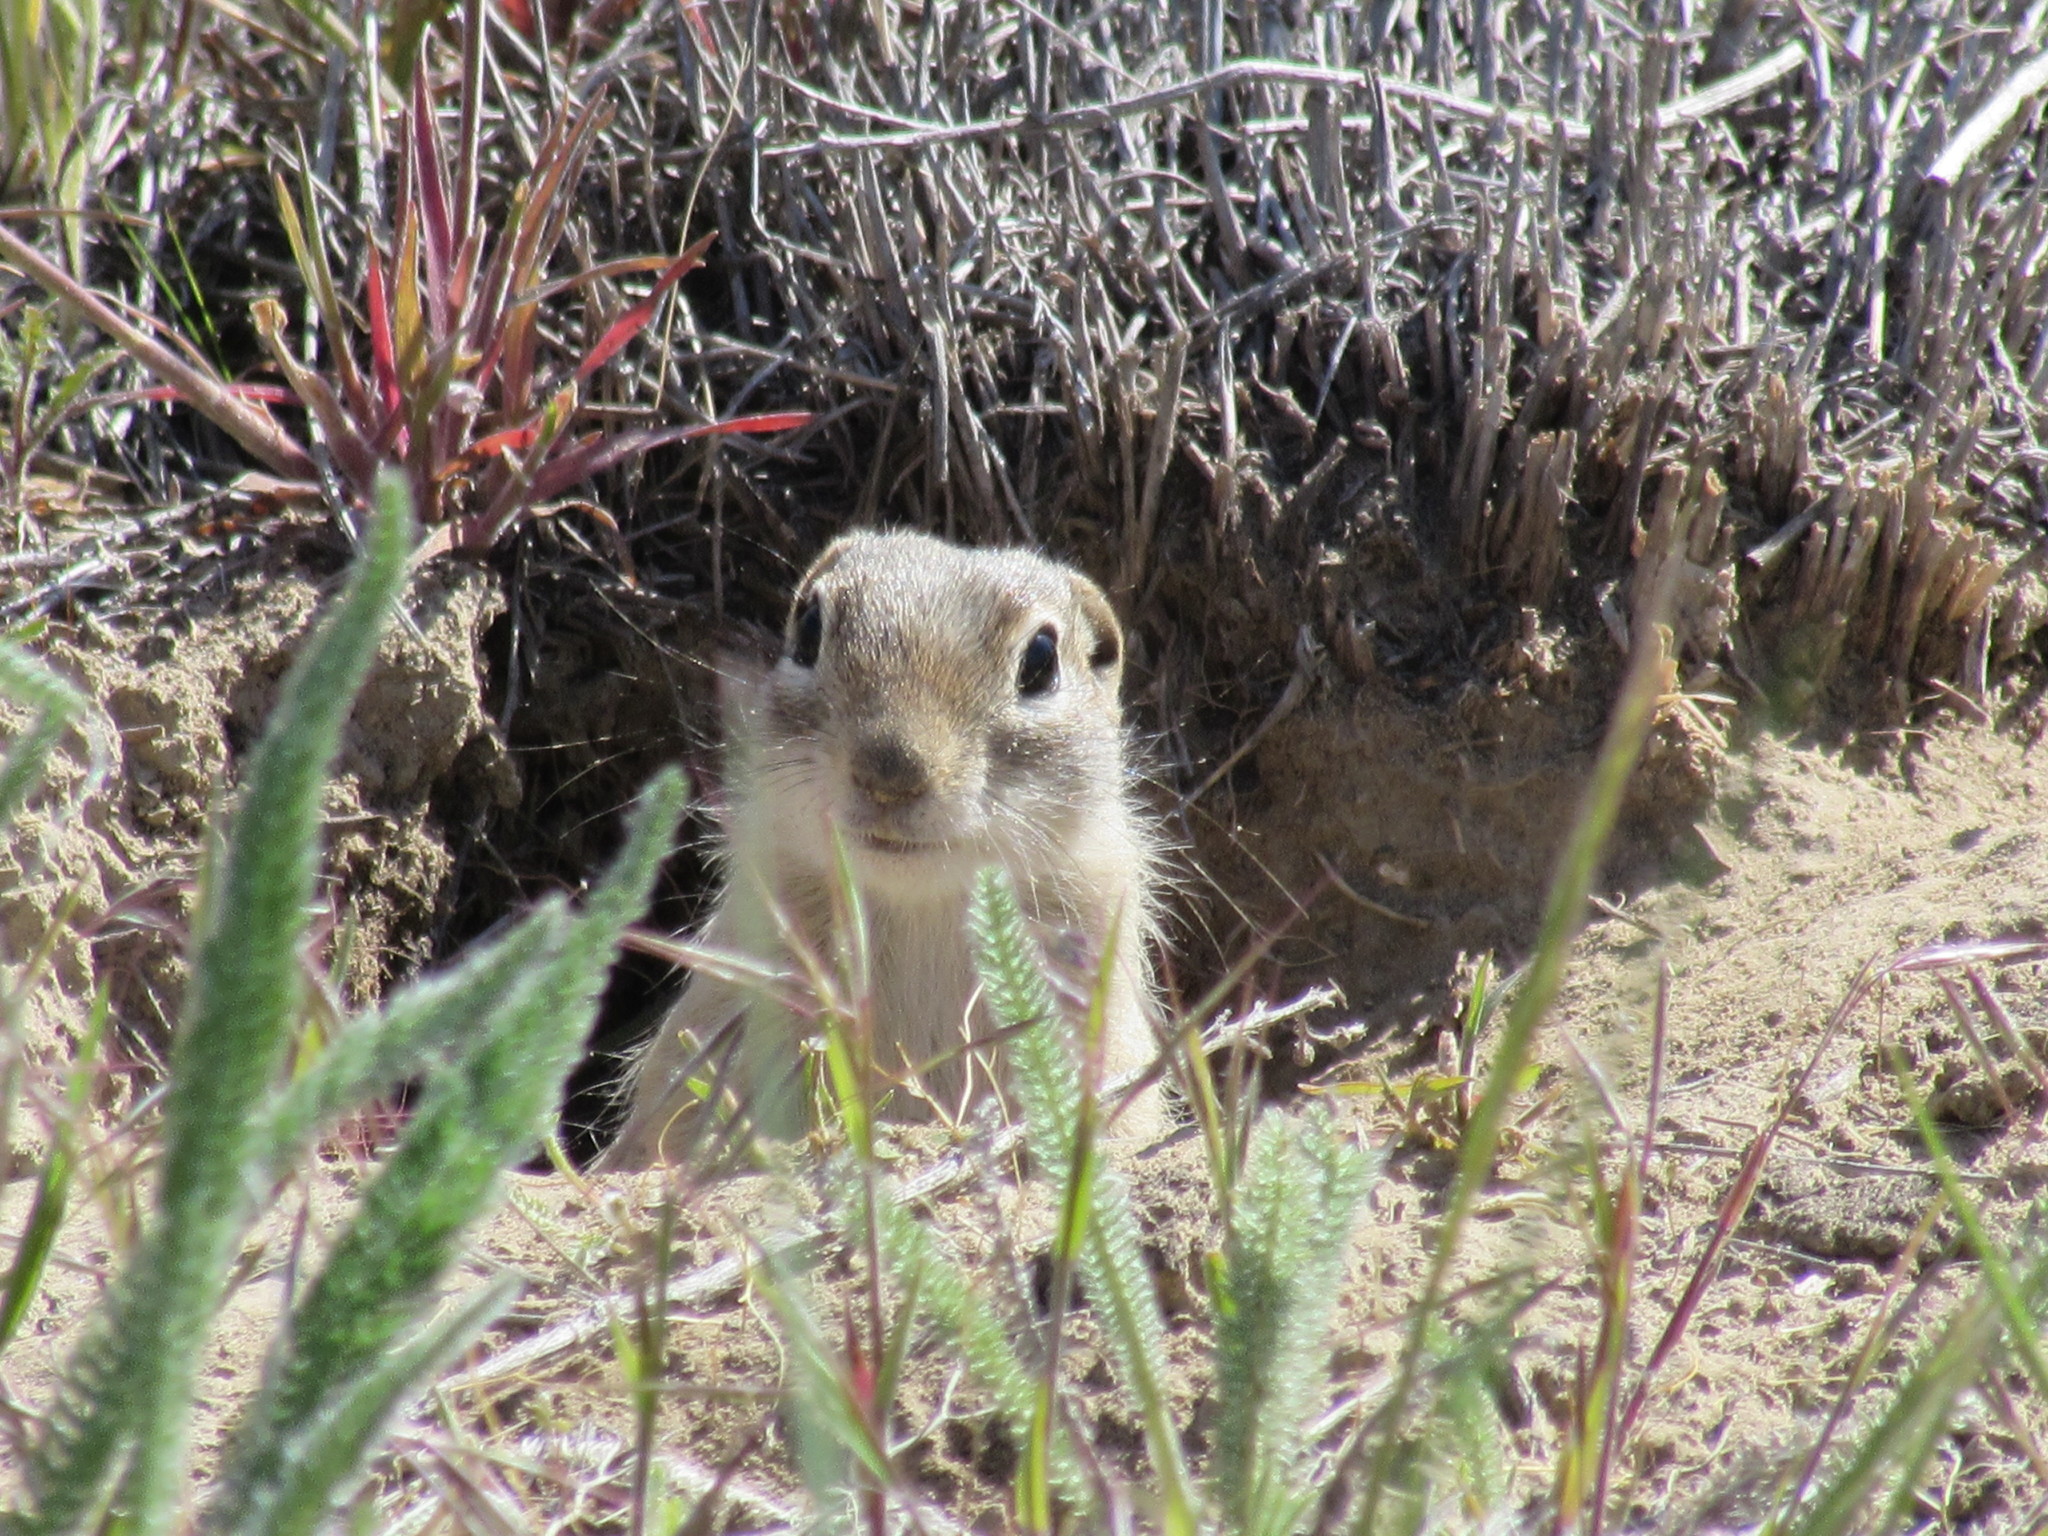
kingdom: Animalia
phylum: Chordata
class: Mammalia
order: Rodentia
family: Sciuridae
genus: Urocitellus
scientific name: Urocitellus washingtoni
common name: Washington ground squirrel
